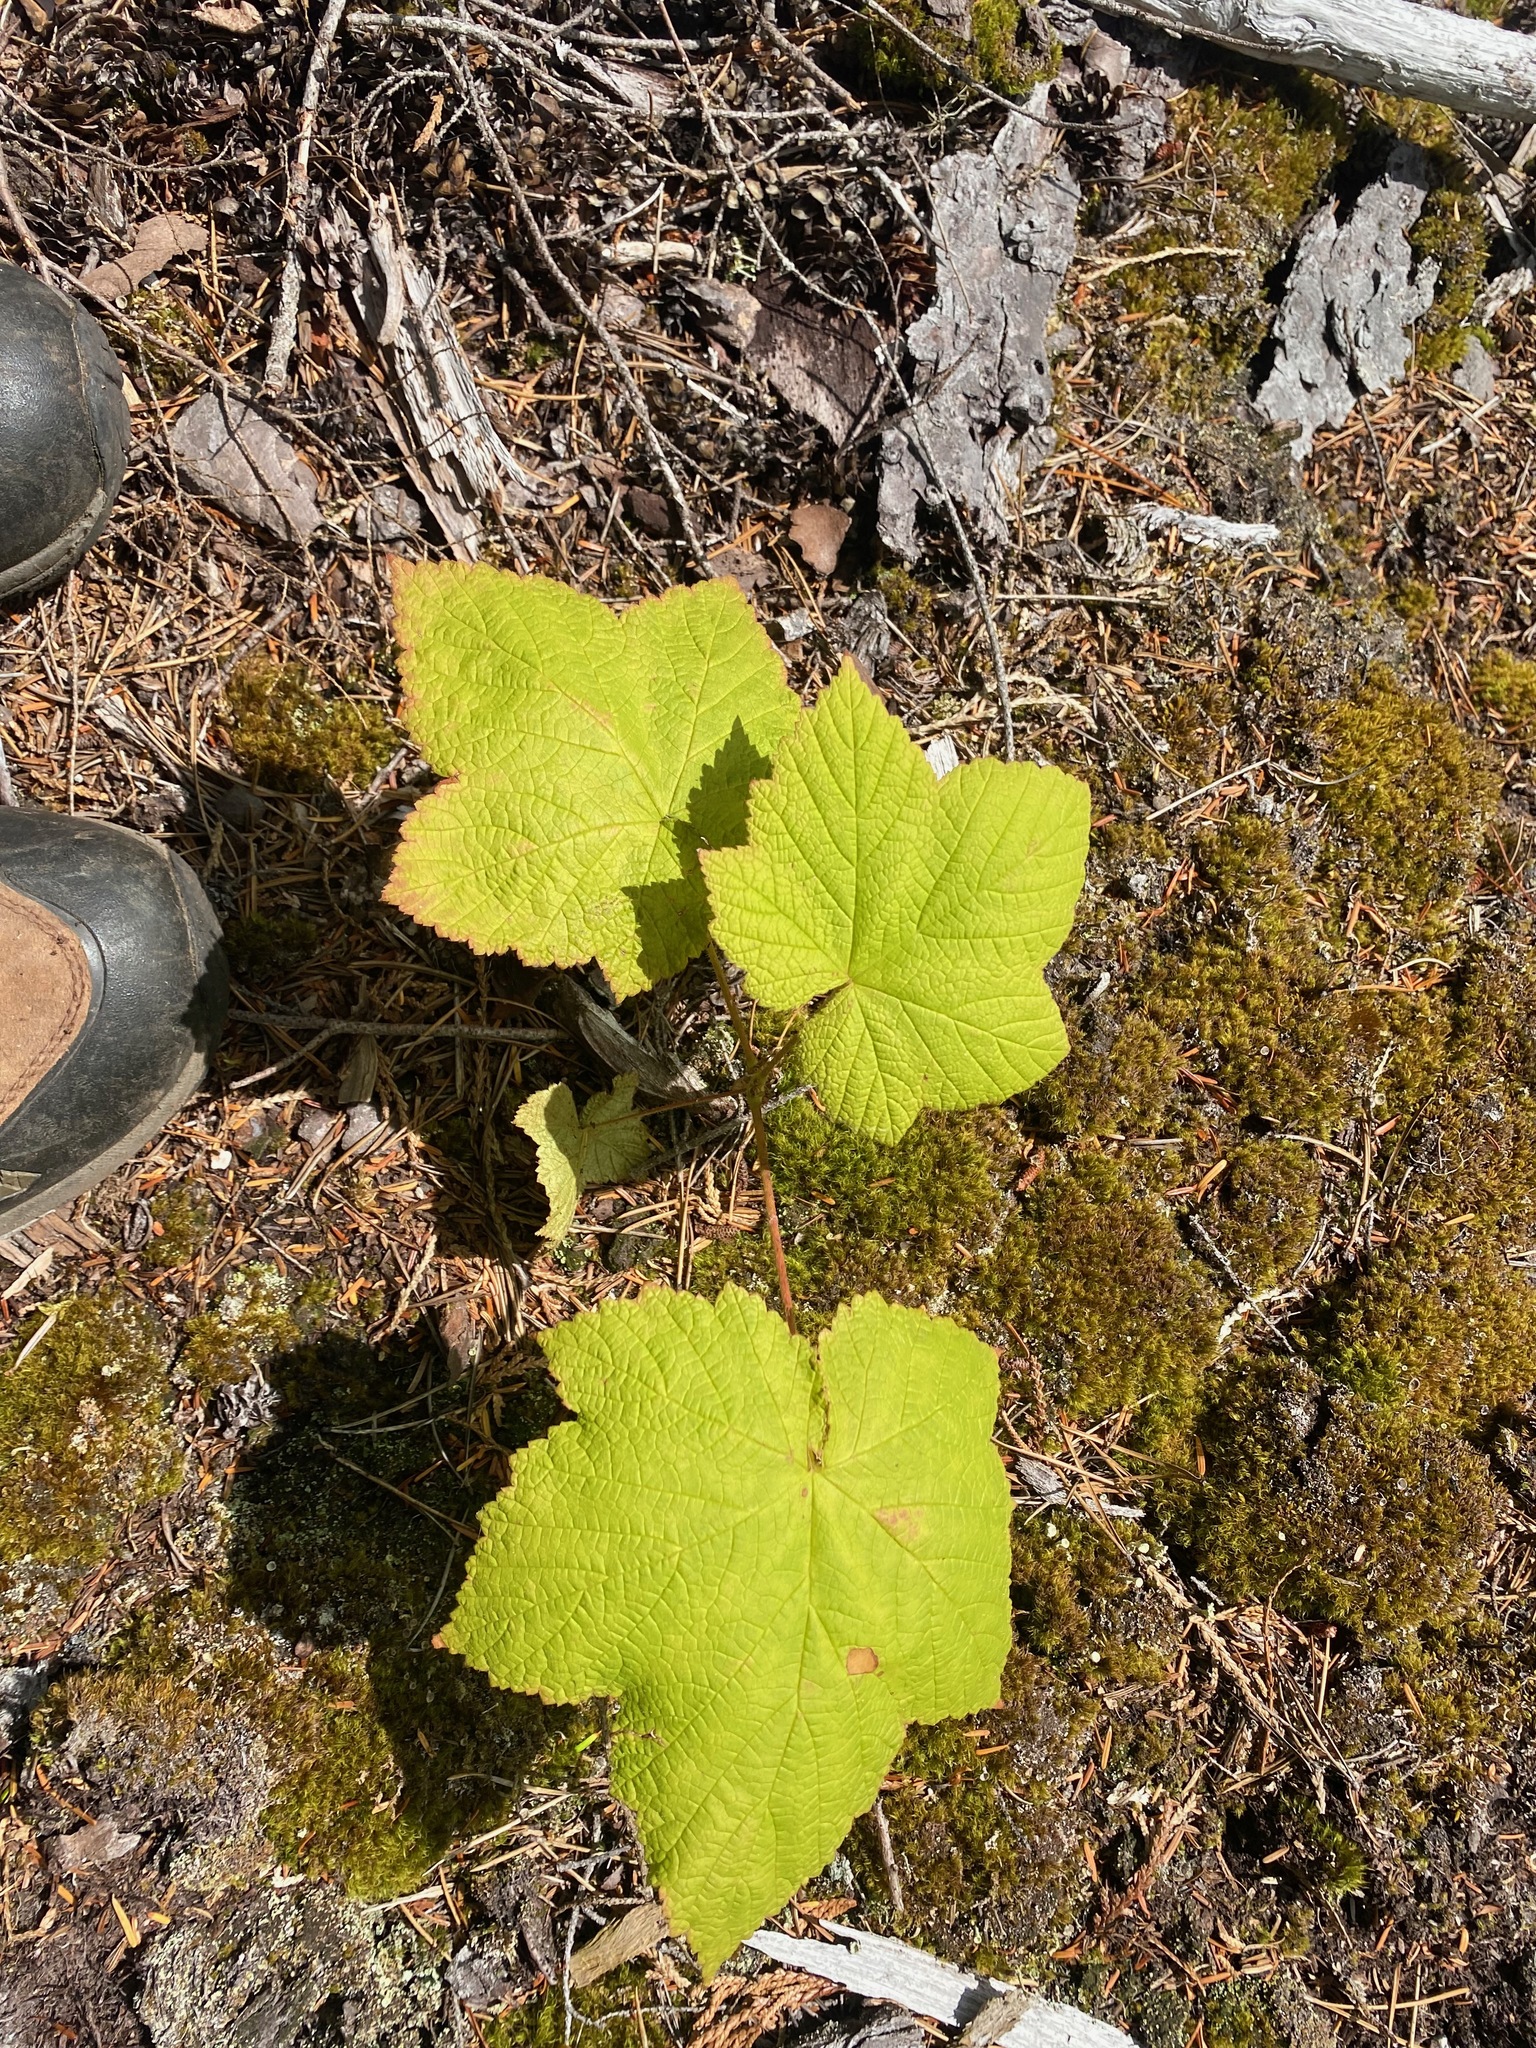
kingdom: Plantae
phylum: Tracheophyta
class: Magnoliopsida
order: Rosales
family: Rosaceae
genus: Rubus
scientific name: Rubus parviflorus
